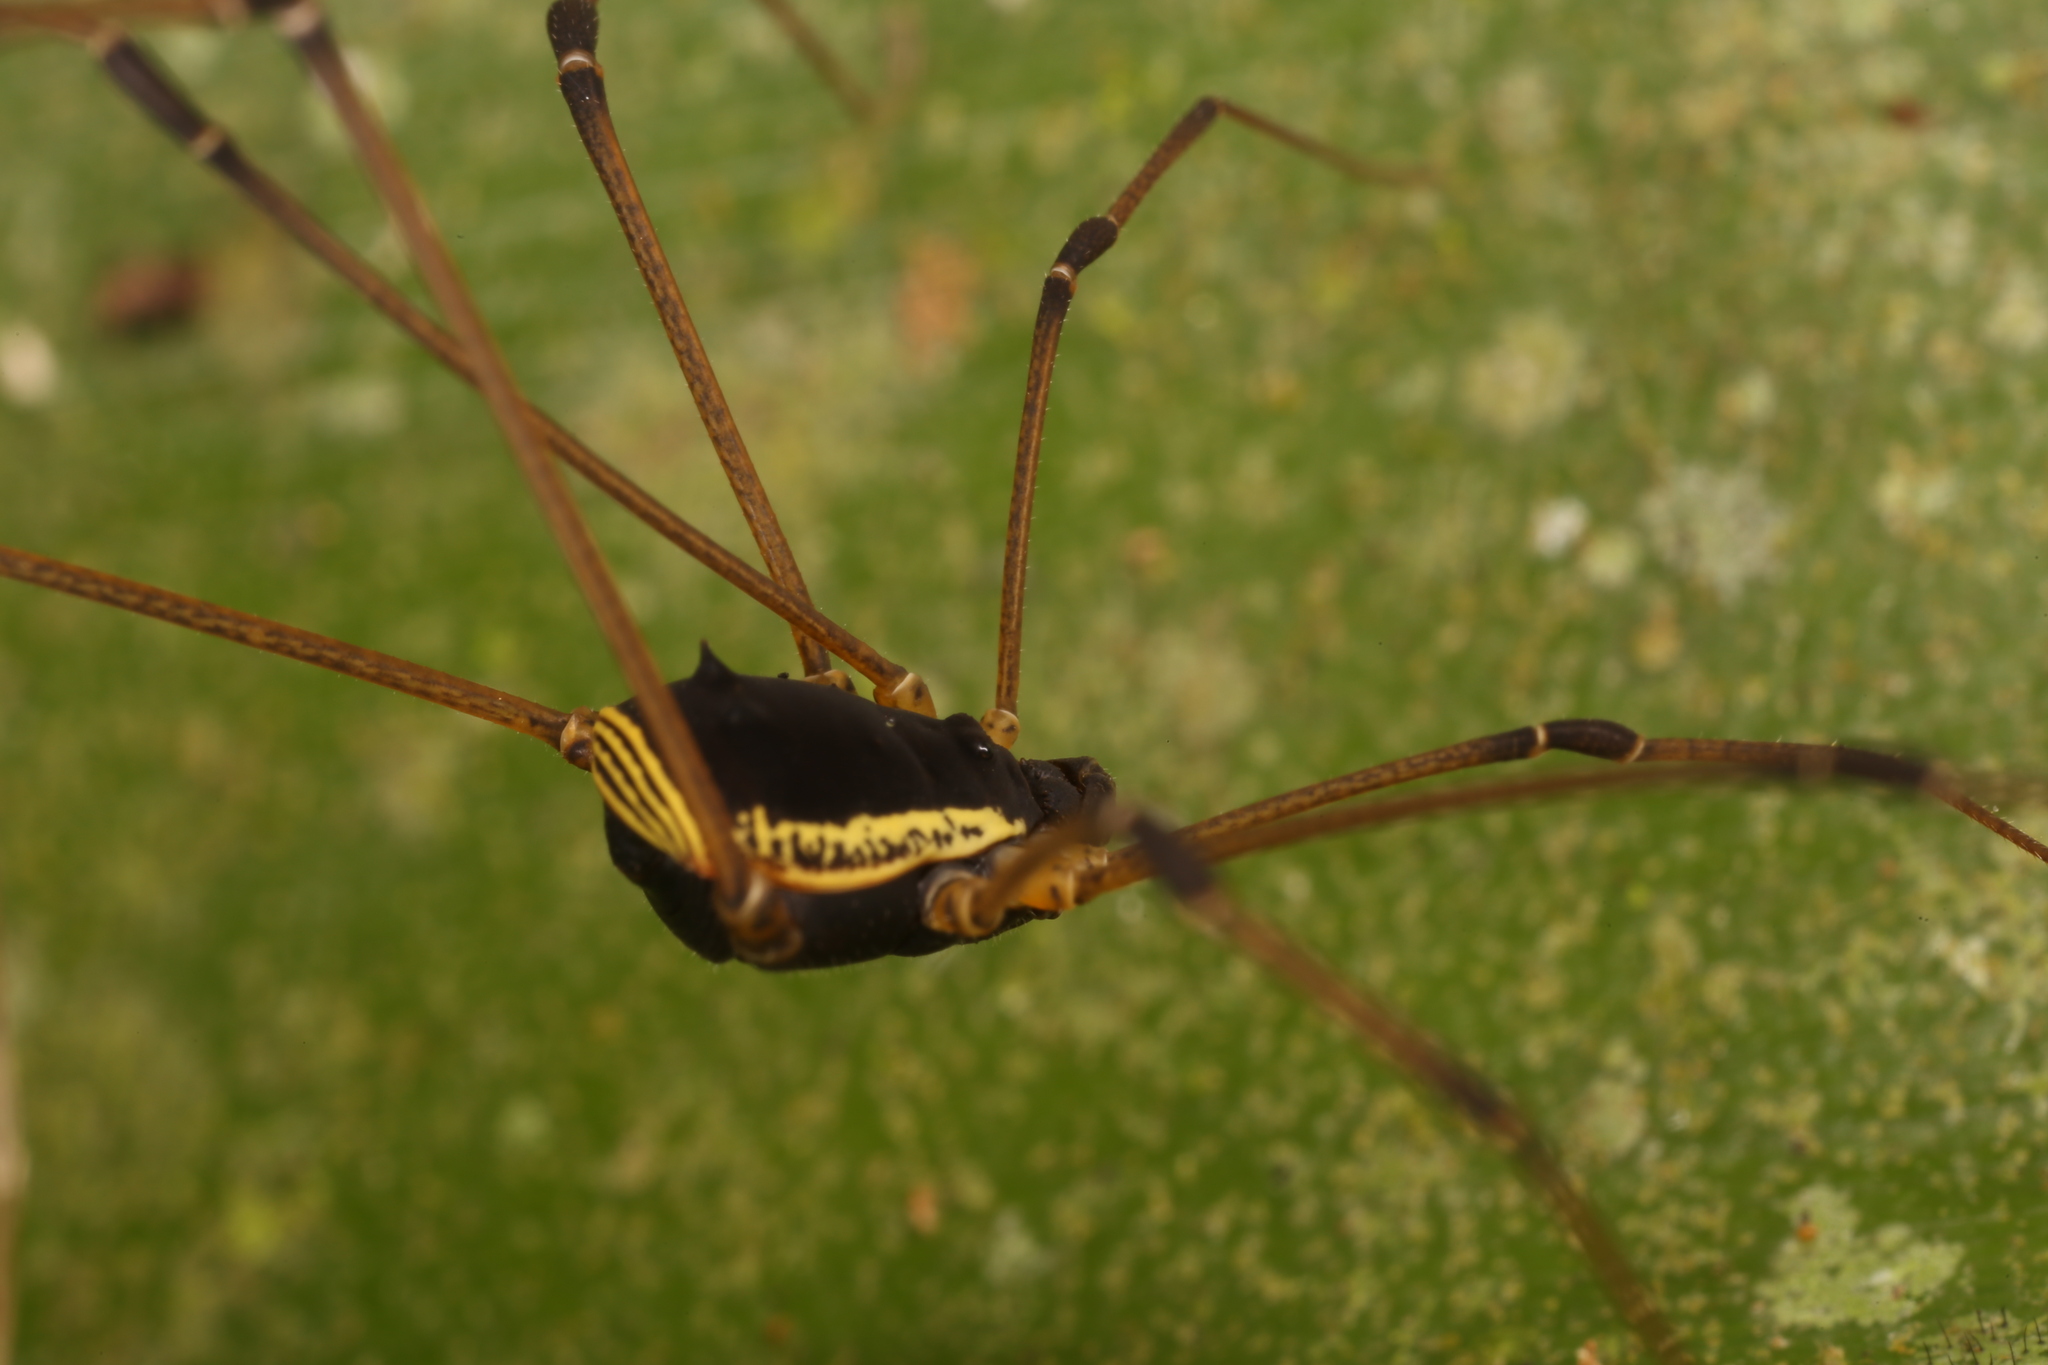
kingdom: Animalia
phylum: Arthropoda
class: Arachnida
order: Opiliones
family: Cosmetidae
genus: Cynorta
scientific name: Cynorta marginalis
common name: Harvestmen
